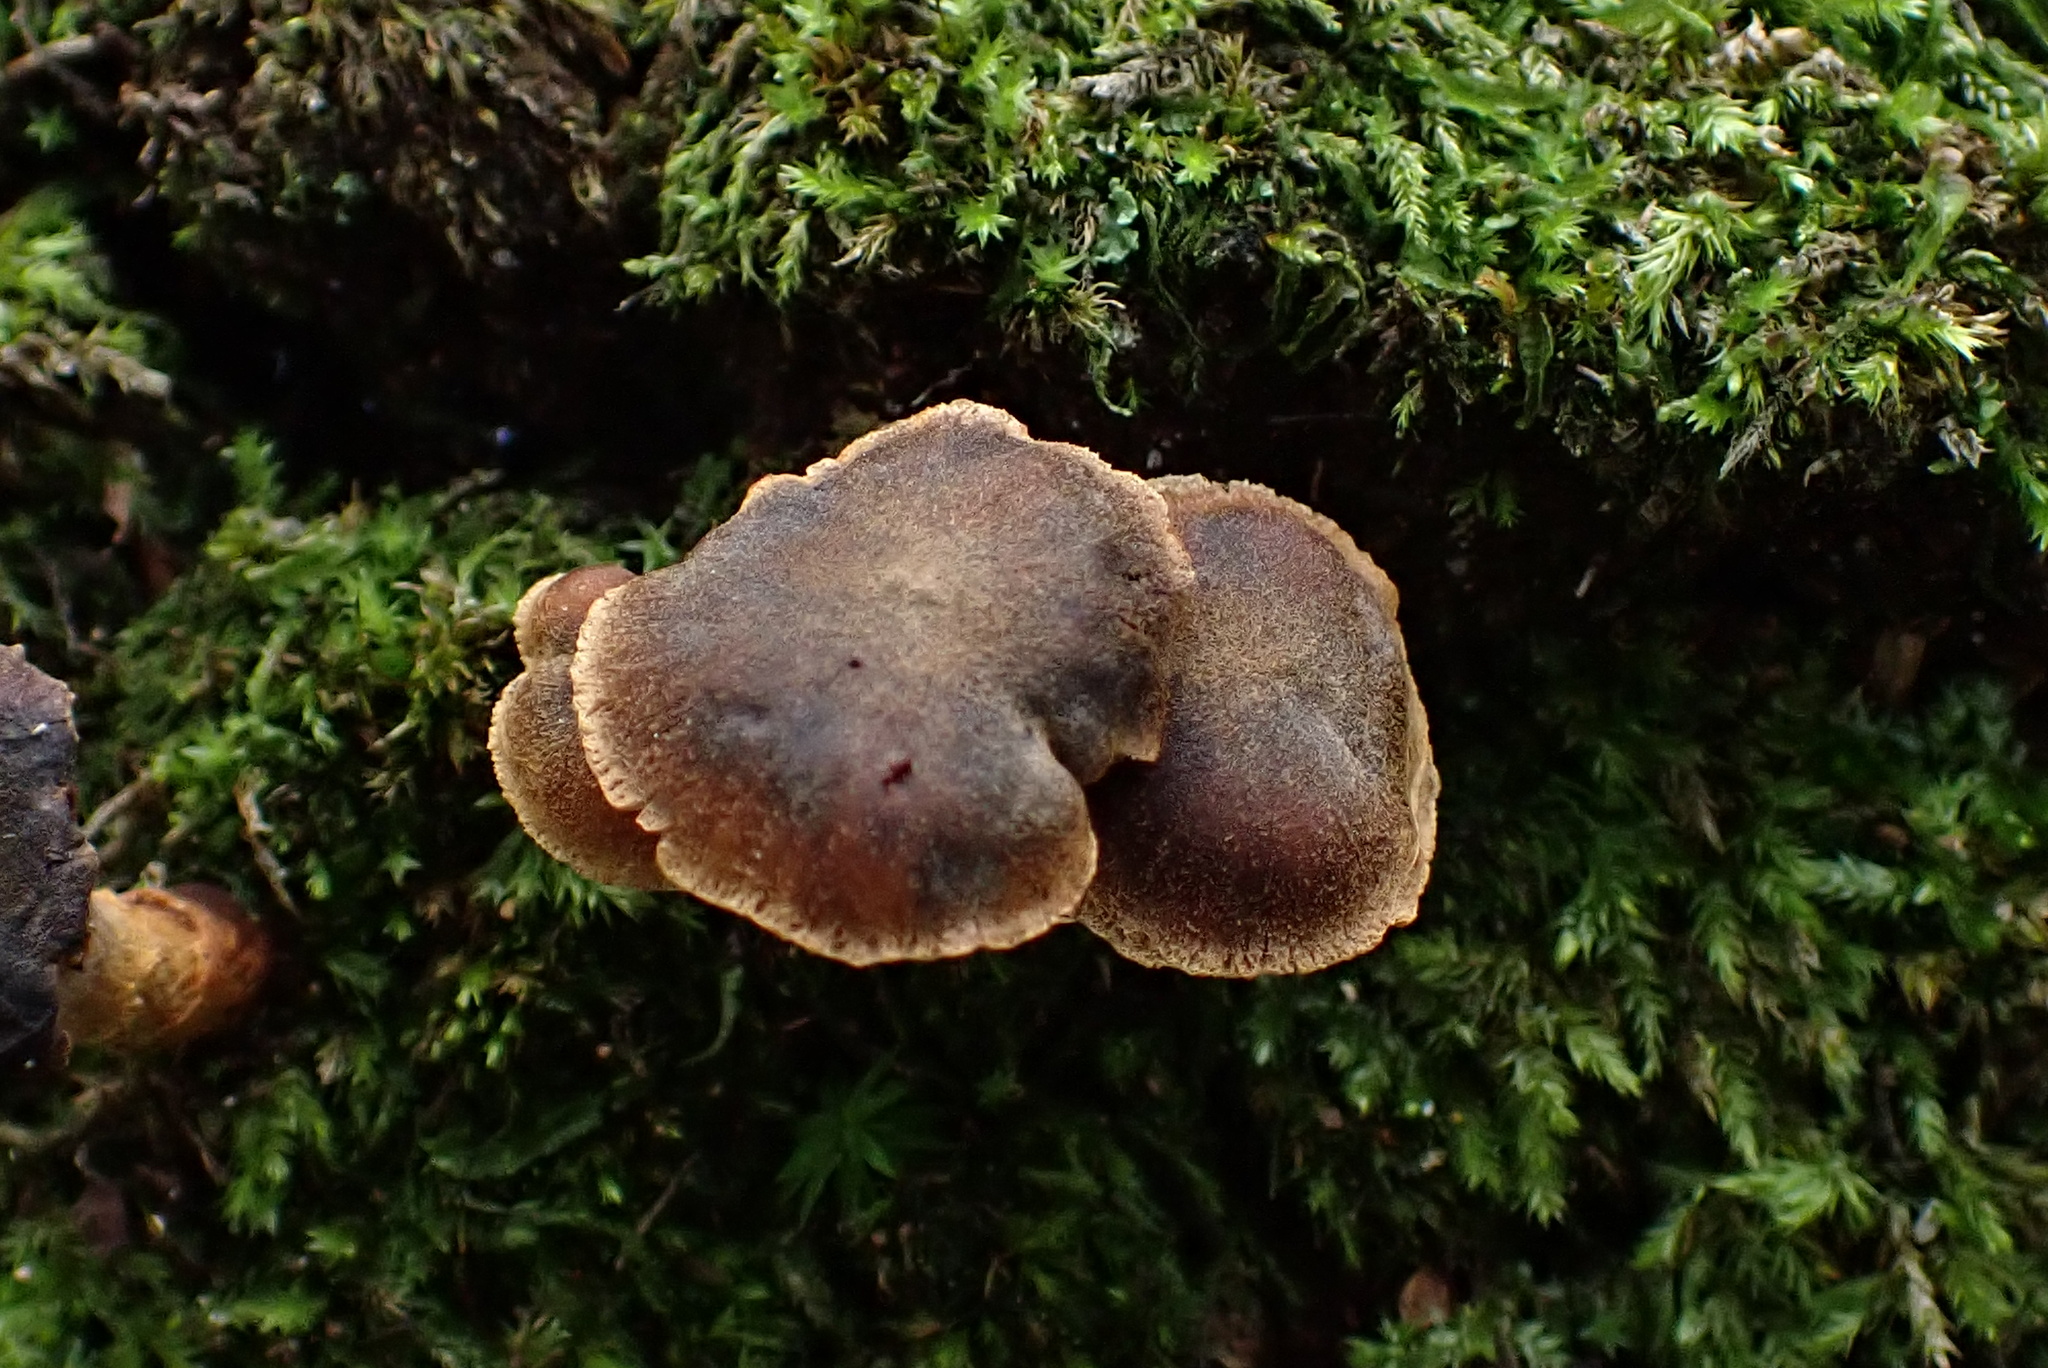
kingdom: Fungi
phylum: Basidiomycota
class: Agaricomycetes
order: Agaricales
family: Cortinariaceae
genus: Cortinarius
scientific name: Cortinarius aureovelatus
